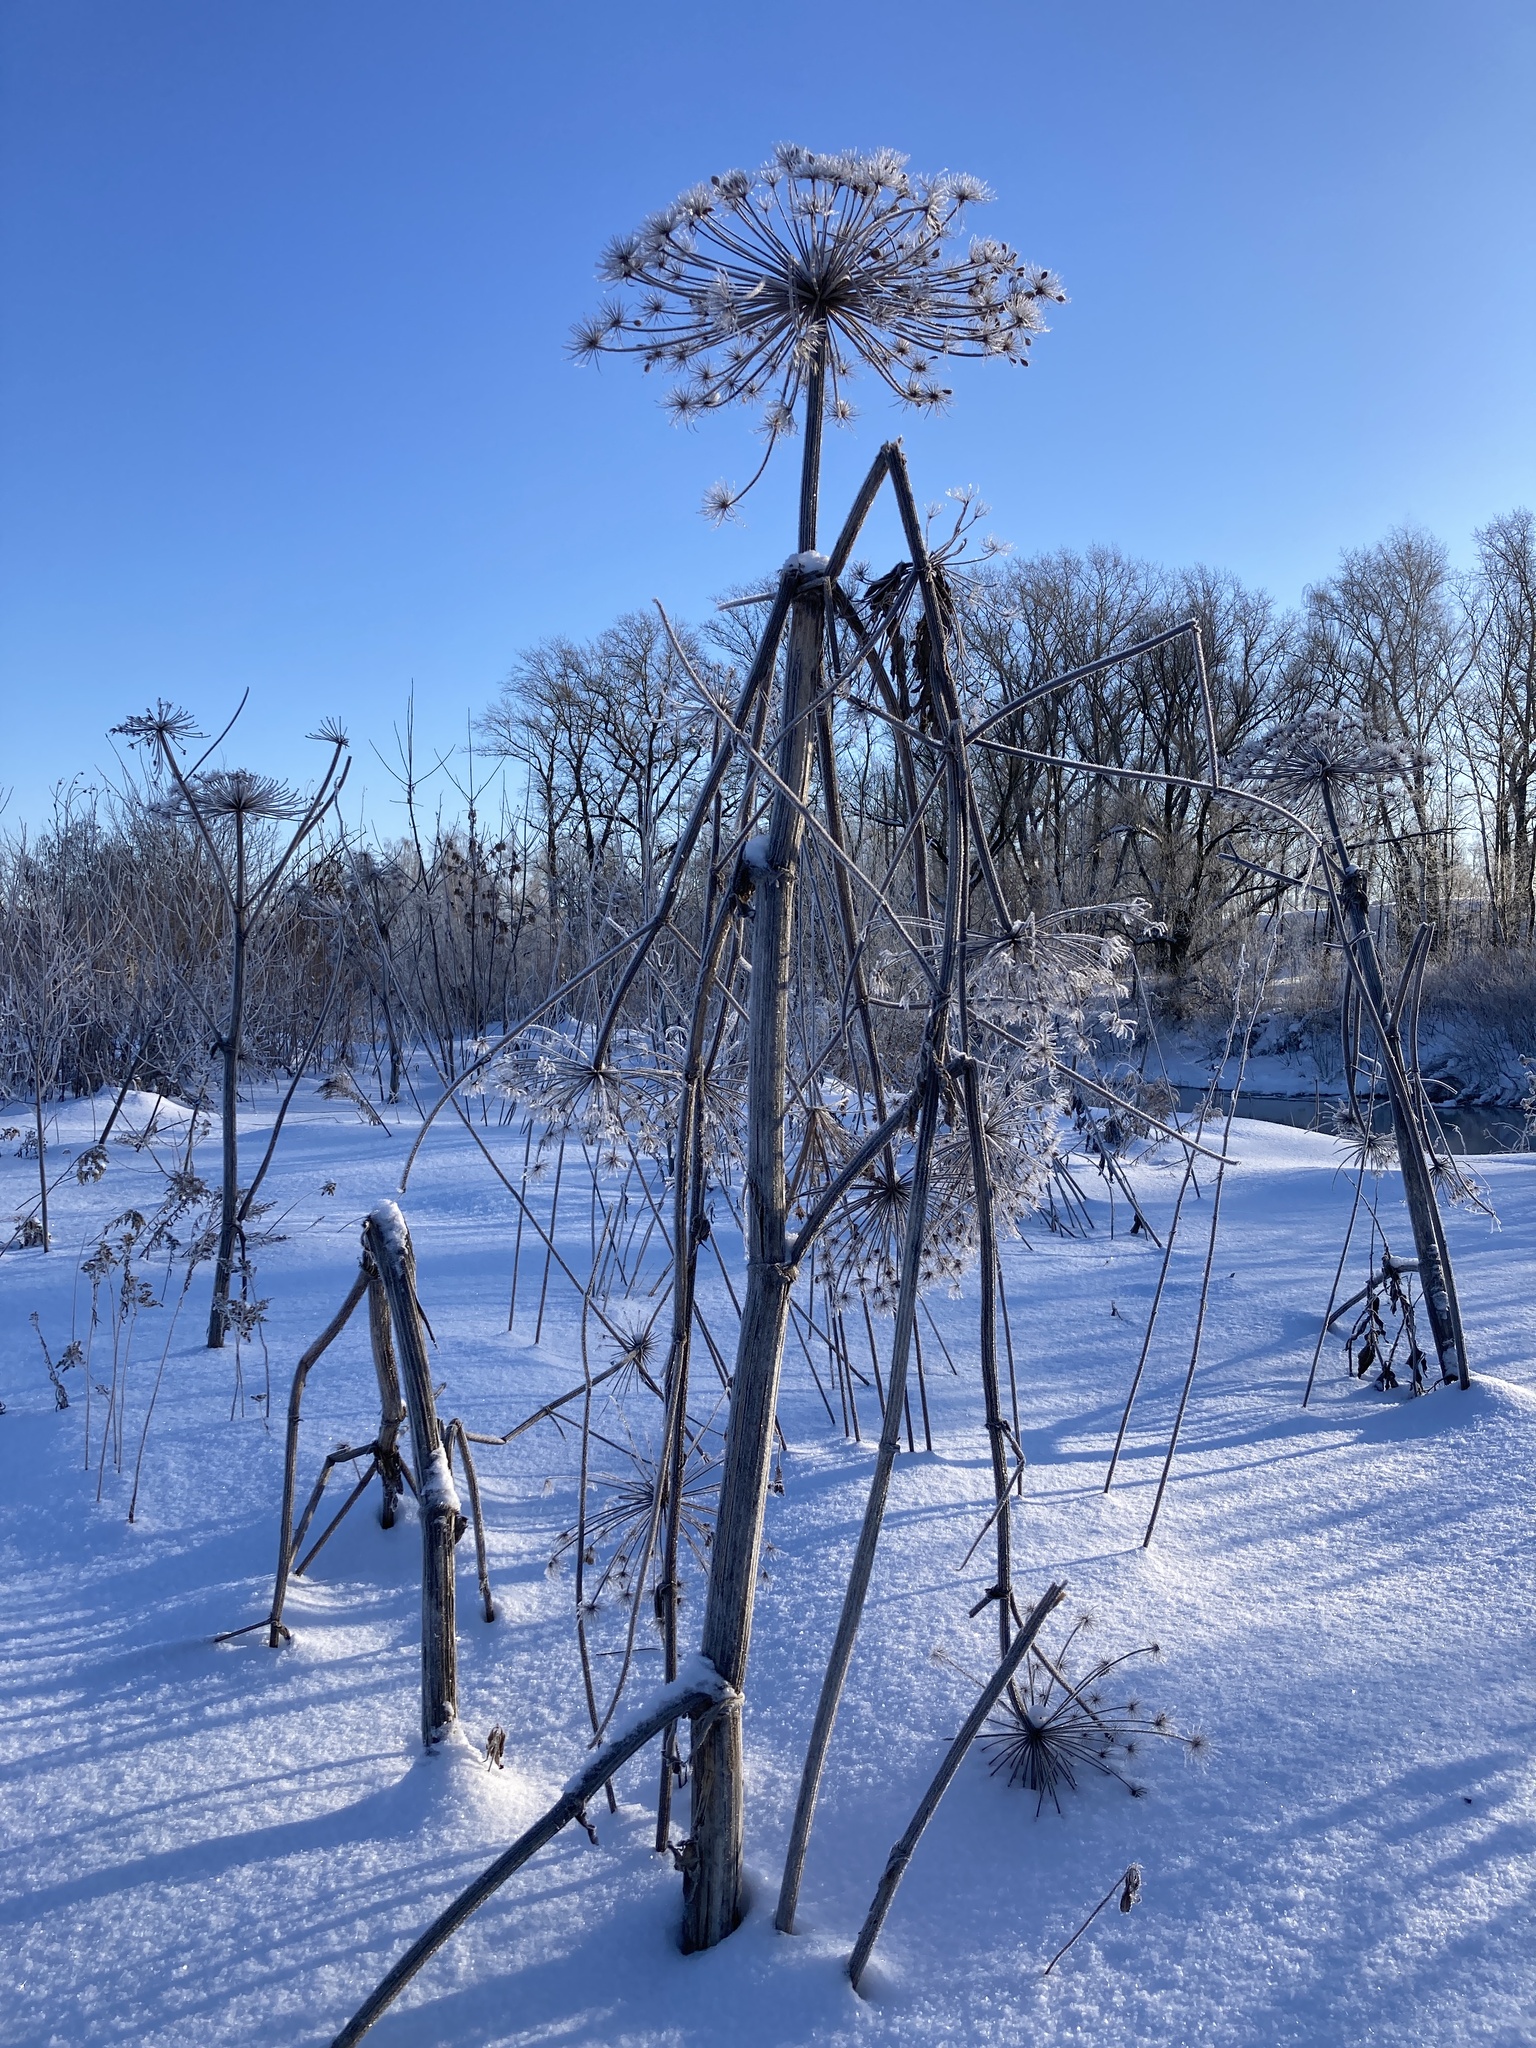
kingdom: Plantae
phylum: Tracheophyta
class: Magnoliopsida
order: Apiales
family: Apiaceae
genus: Heracleum
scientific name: Heracleum sosnowskyi
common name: Sosnowsky's hogweed
